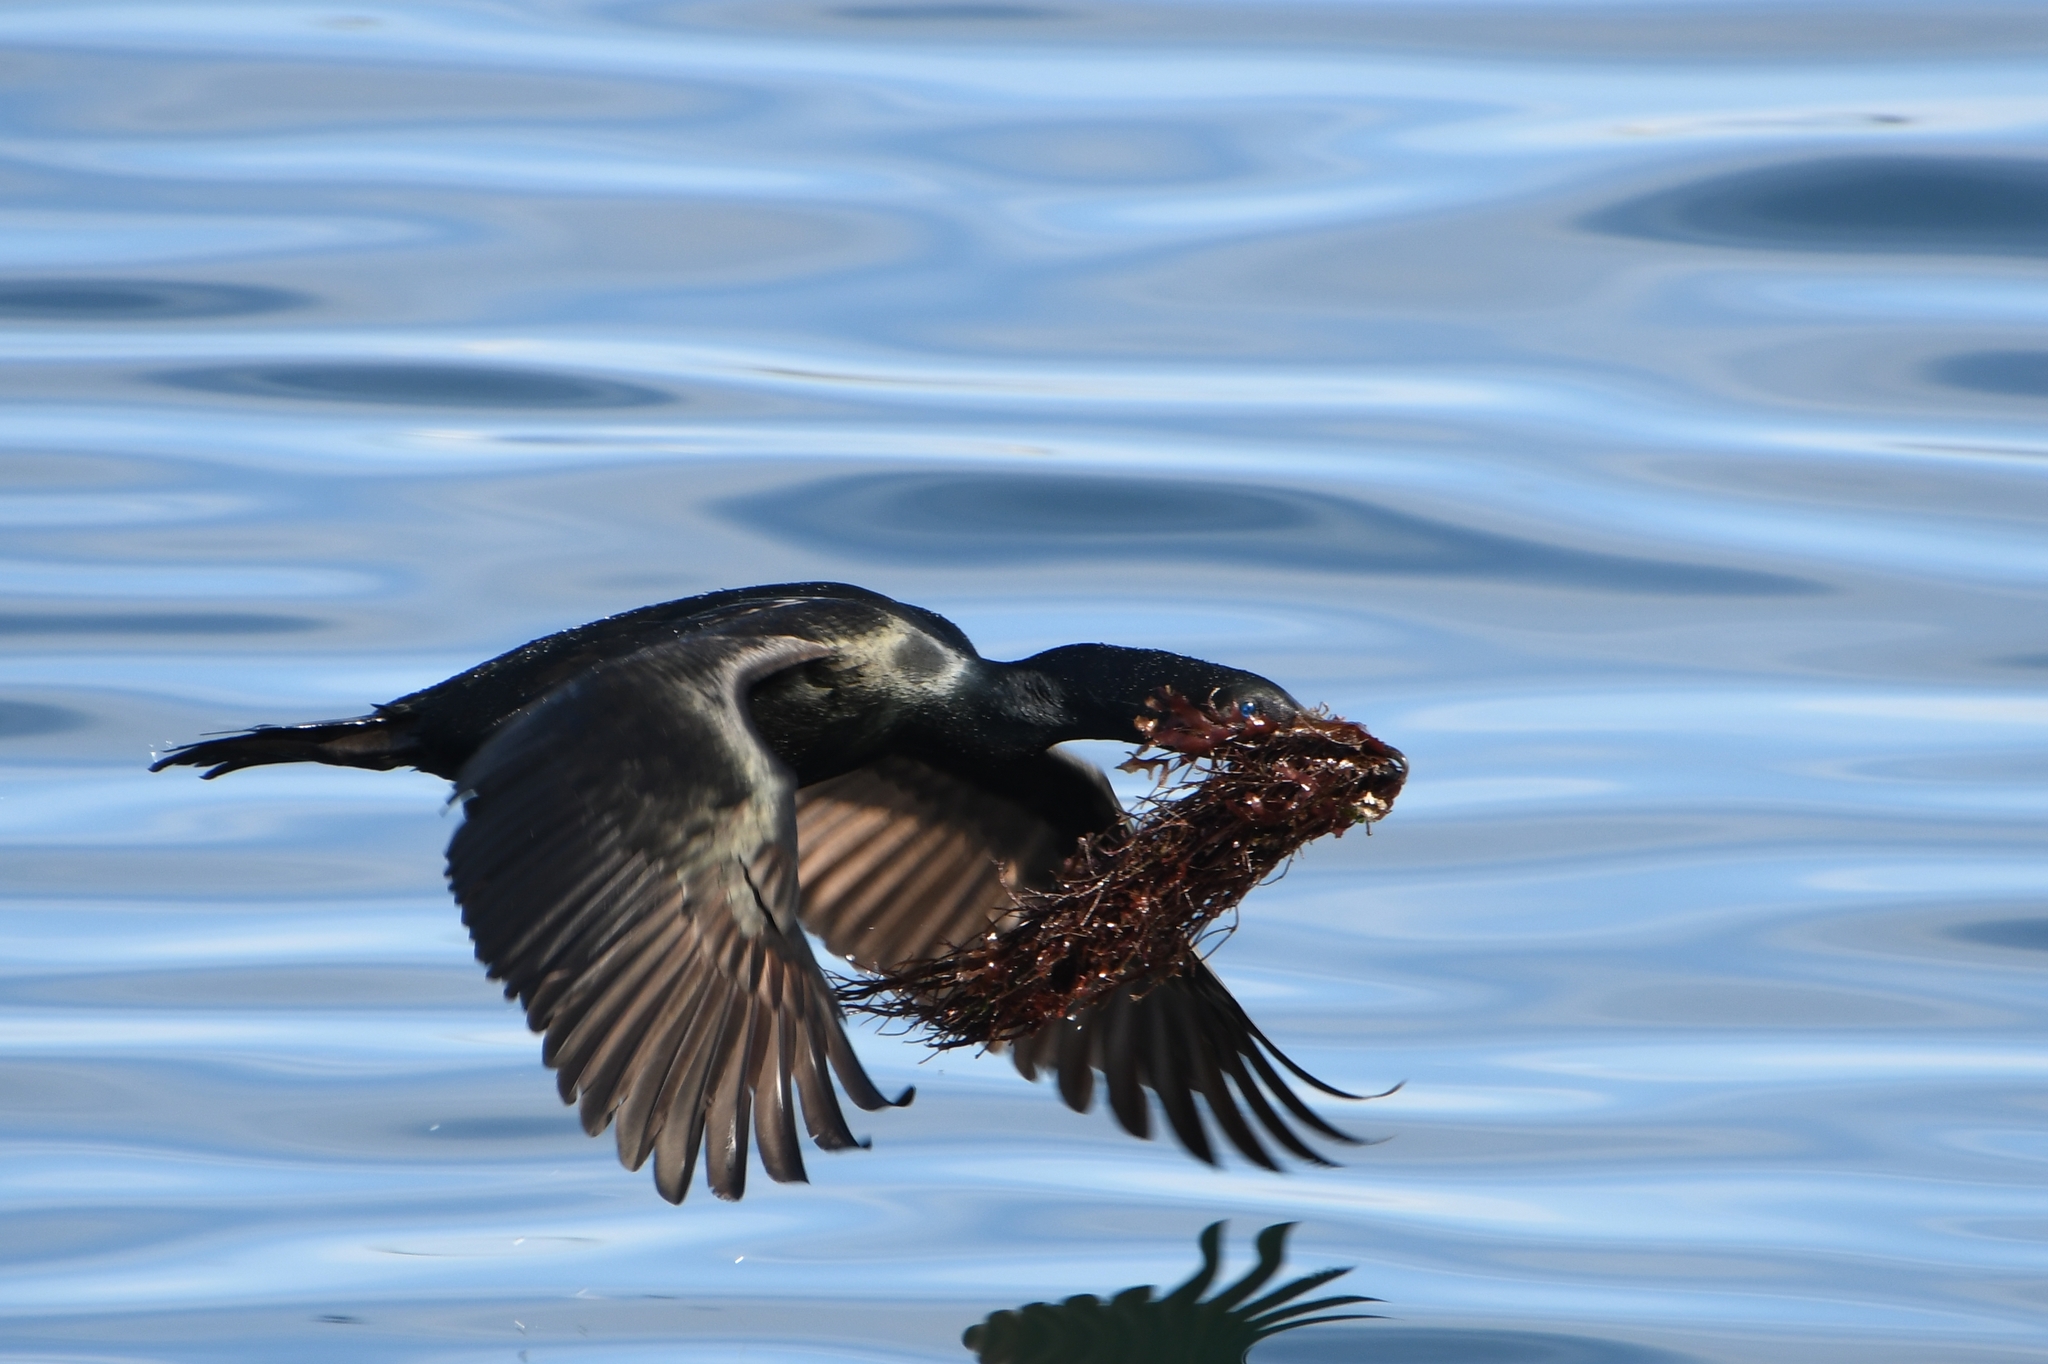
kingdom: Animalia
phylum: Chordata
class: Aves
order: Suliformes
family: Phalacrocoracidae
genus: Urile
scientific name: Urile penicillatus
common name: Brandt's cormorant
